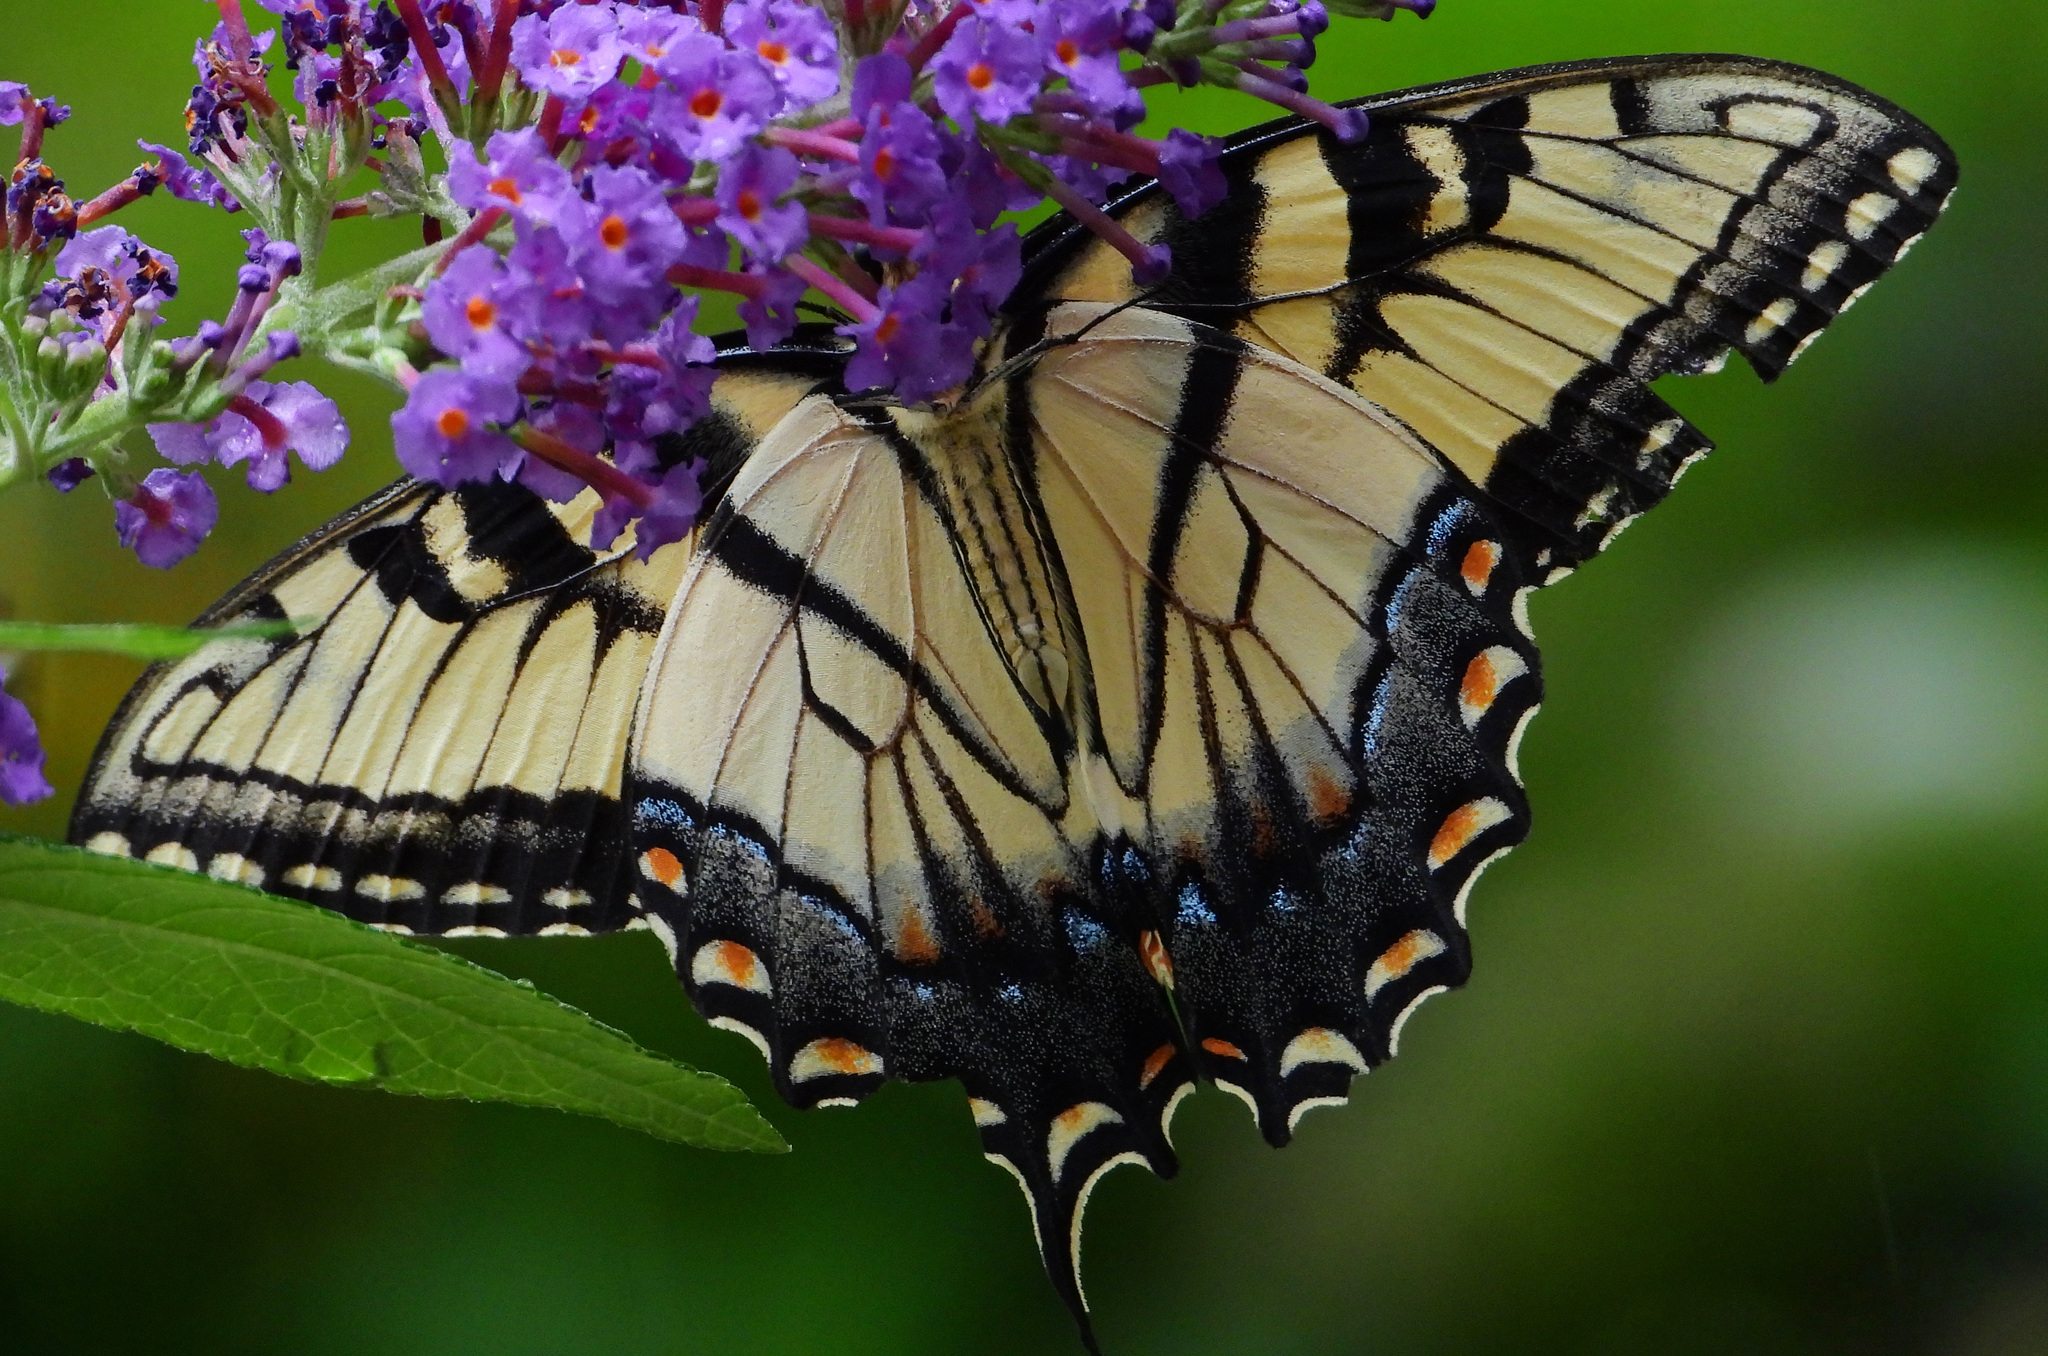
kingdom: Animalia
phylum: Arthropoda
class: Insecta
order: Lepidoptera
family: Papilionidae
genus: Papilio
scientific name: Papilio glaucus
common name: Tiger swallowtail
